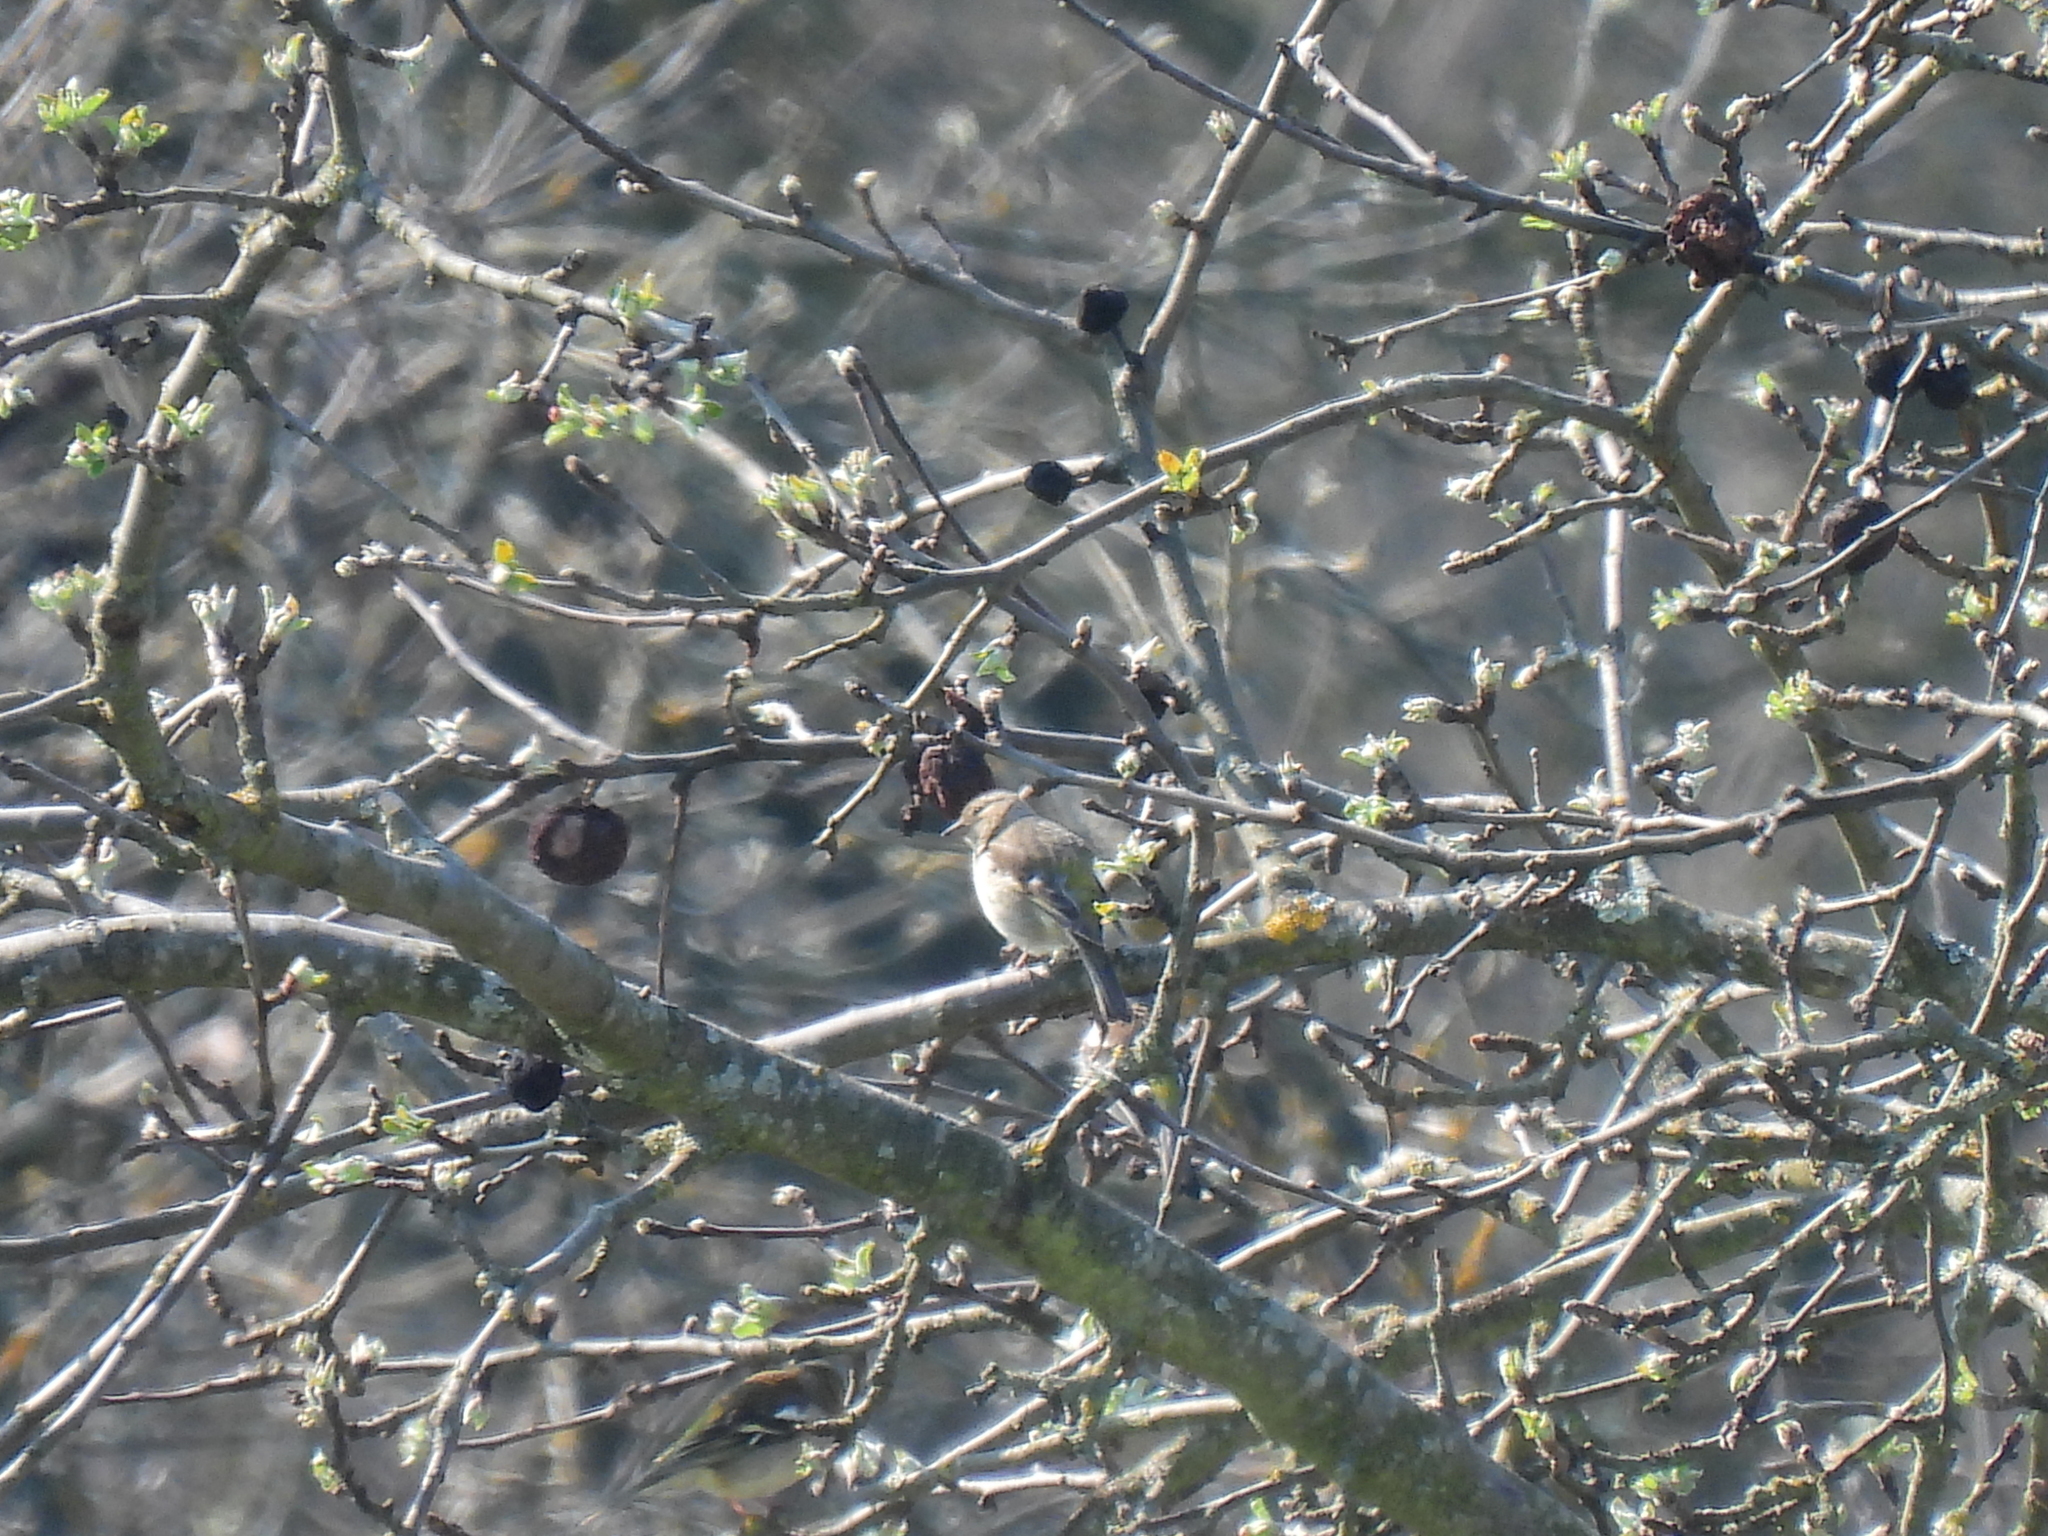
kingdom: Animalia
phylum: Chordata
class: Aves
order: Passeriformes
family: Fringillidae
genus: Fringilla
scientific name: Fringilla coelebs
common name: Common chaffinch
